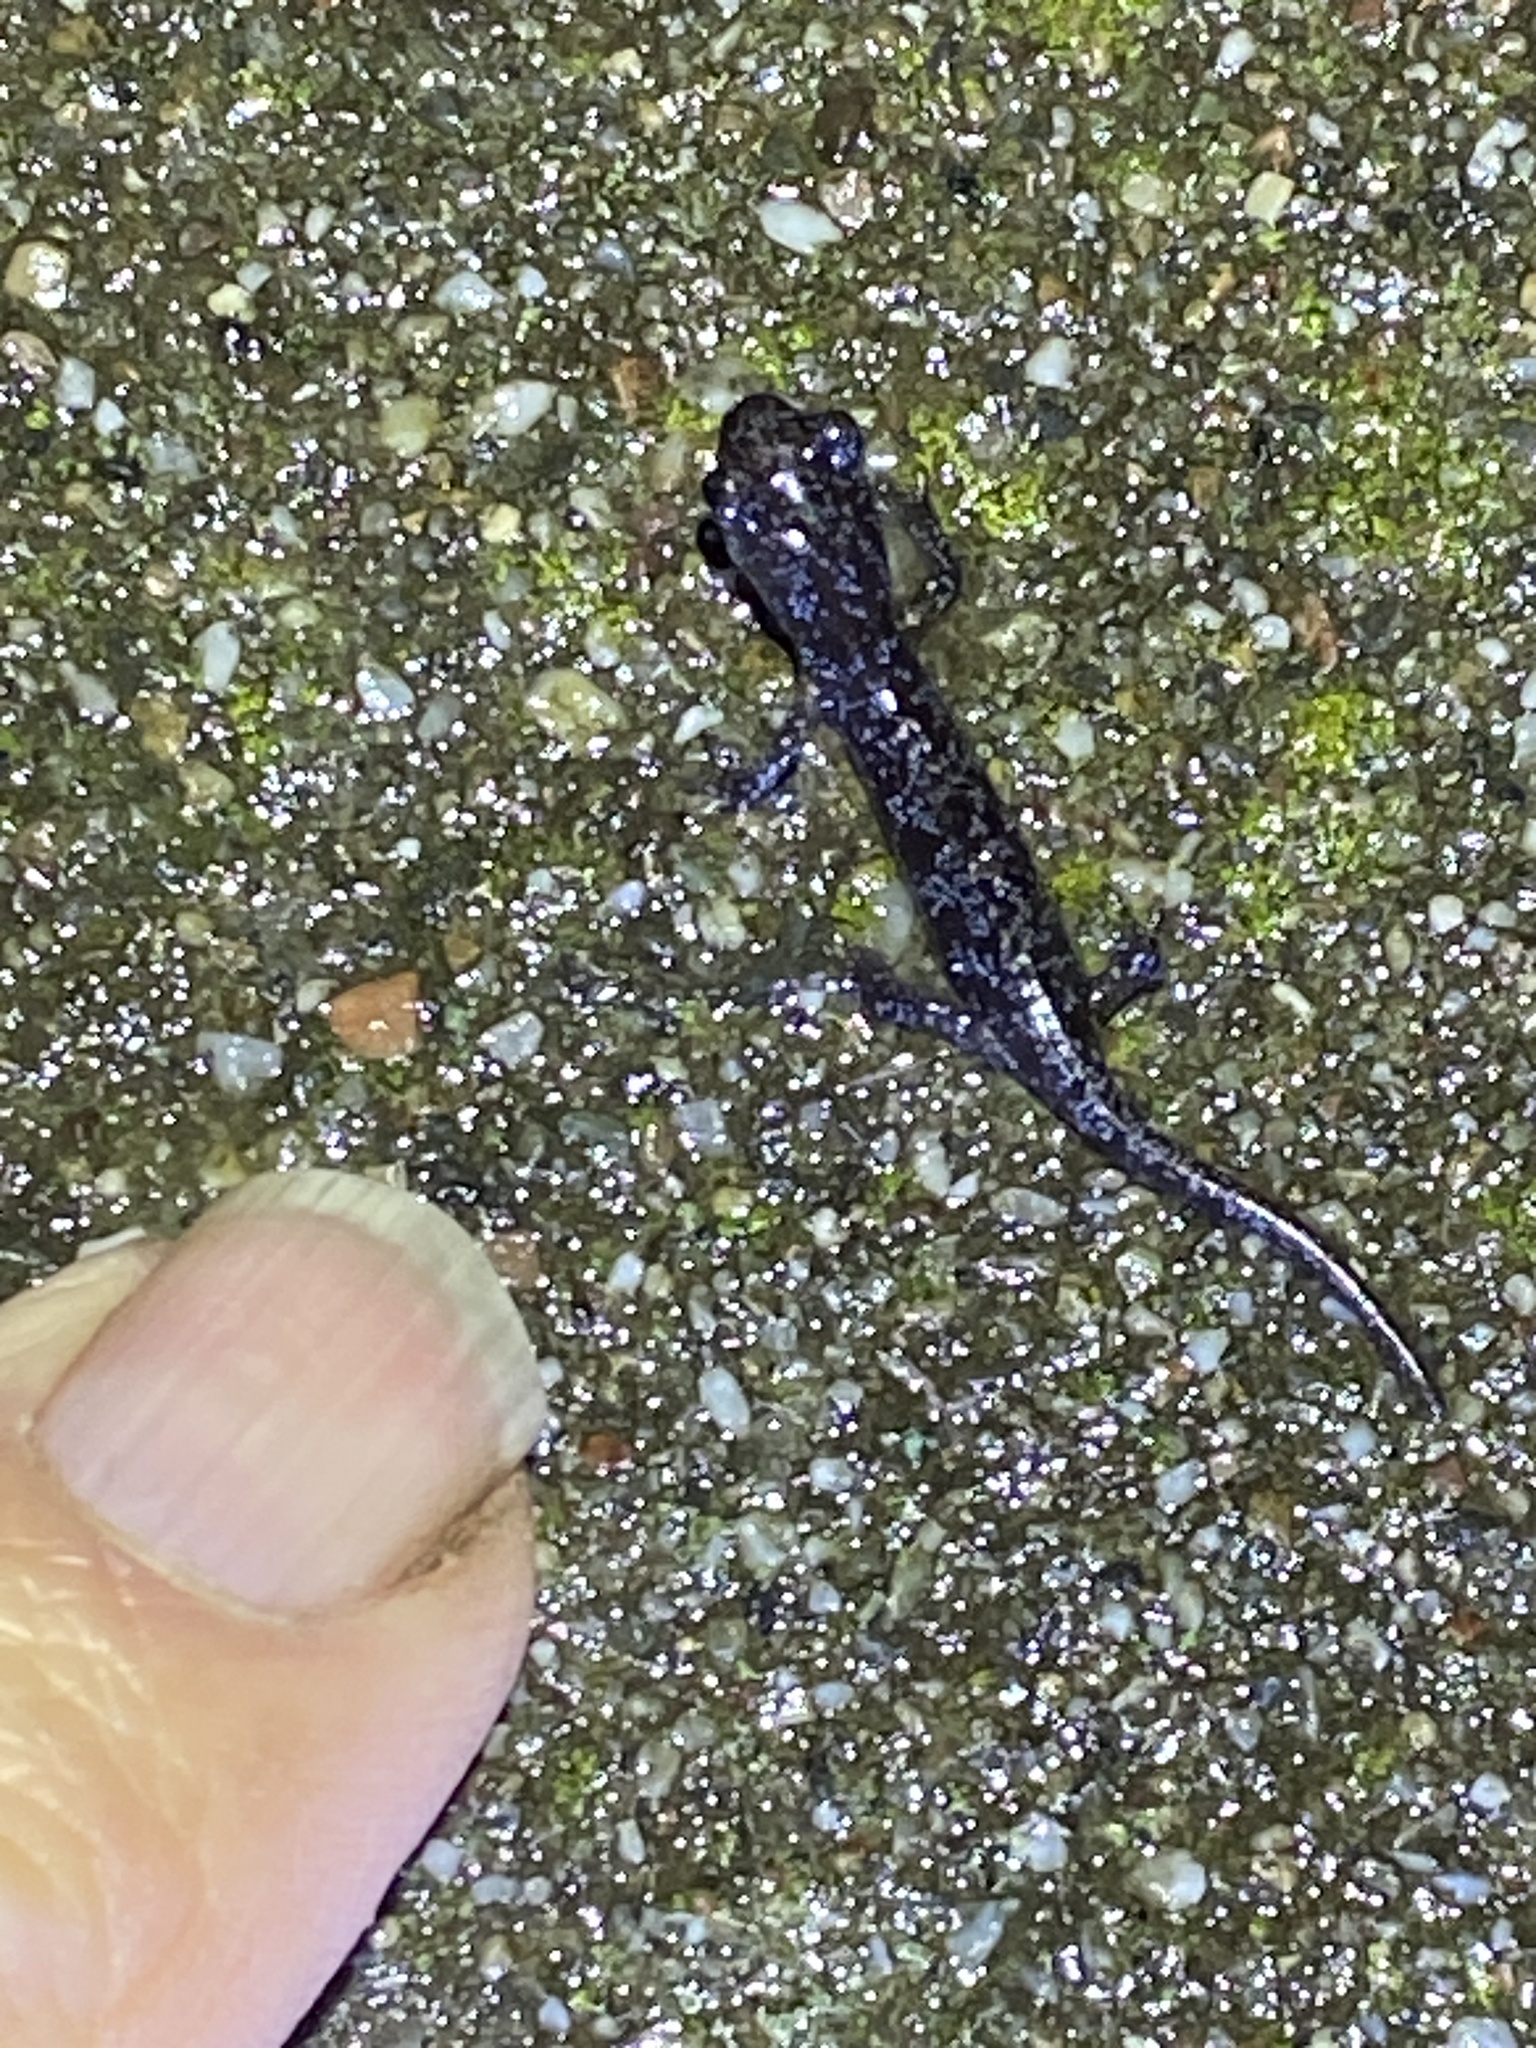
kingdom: Animalia
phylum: Chordata
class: Amphibia
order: Caudata
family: Plethodontidae
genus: Aneides
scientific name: Aneides lugubris
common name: Arboreal salamander
